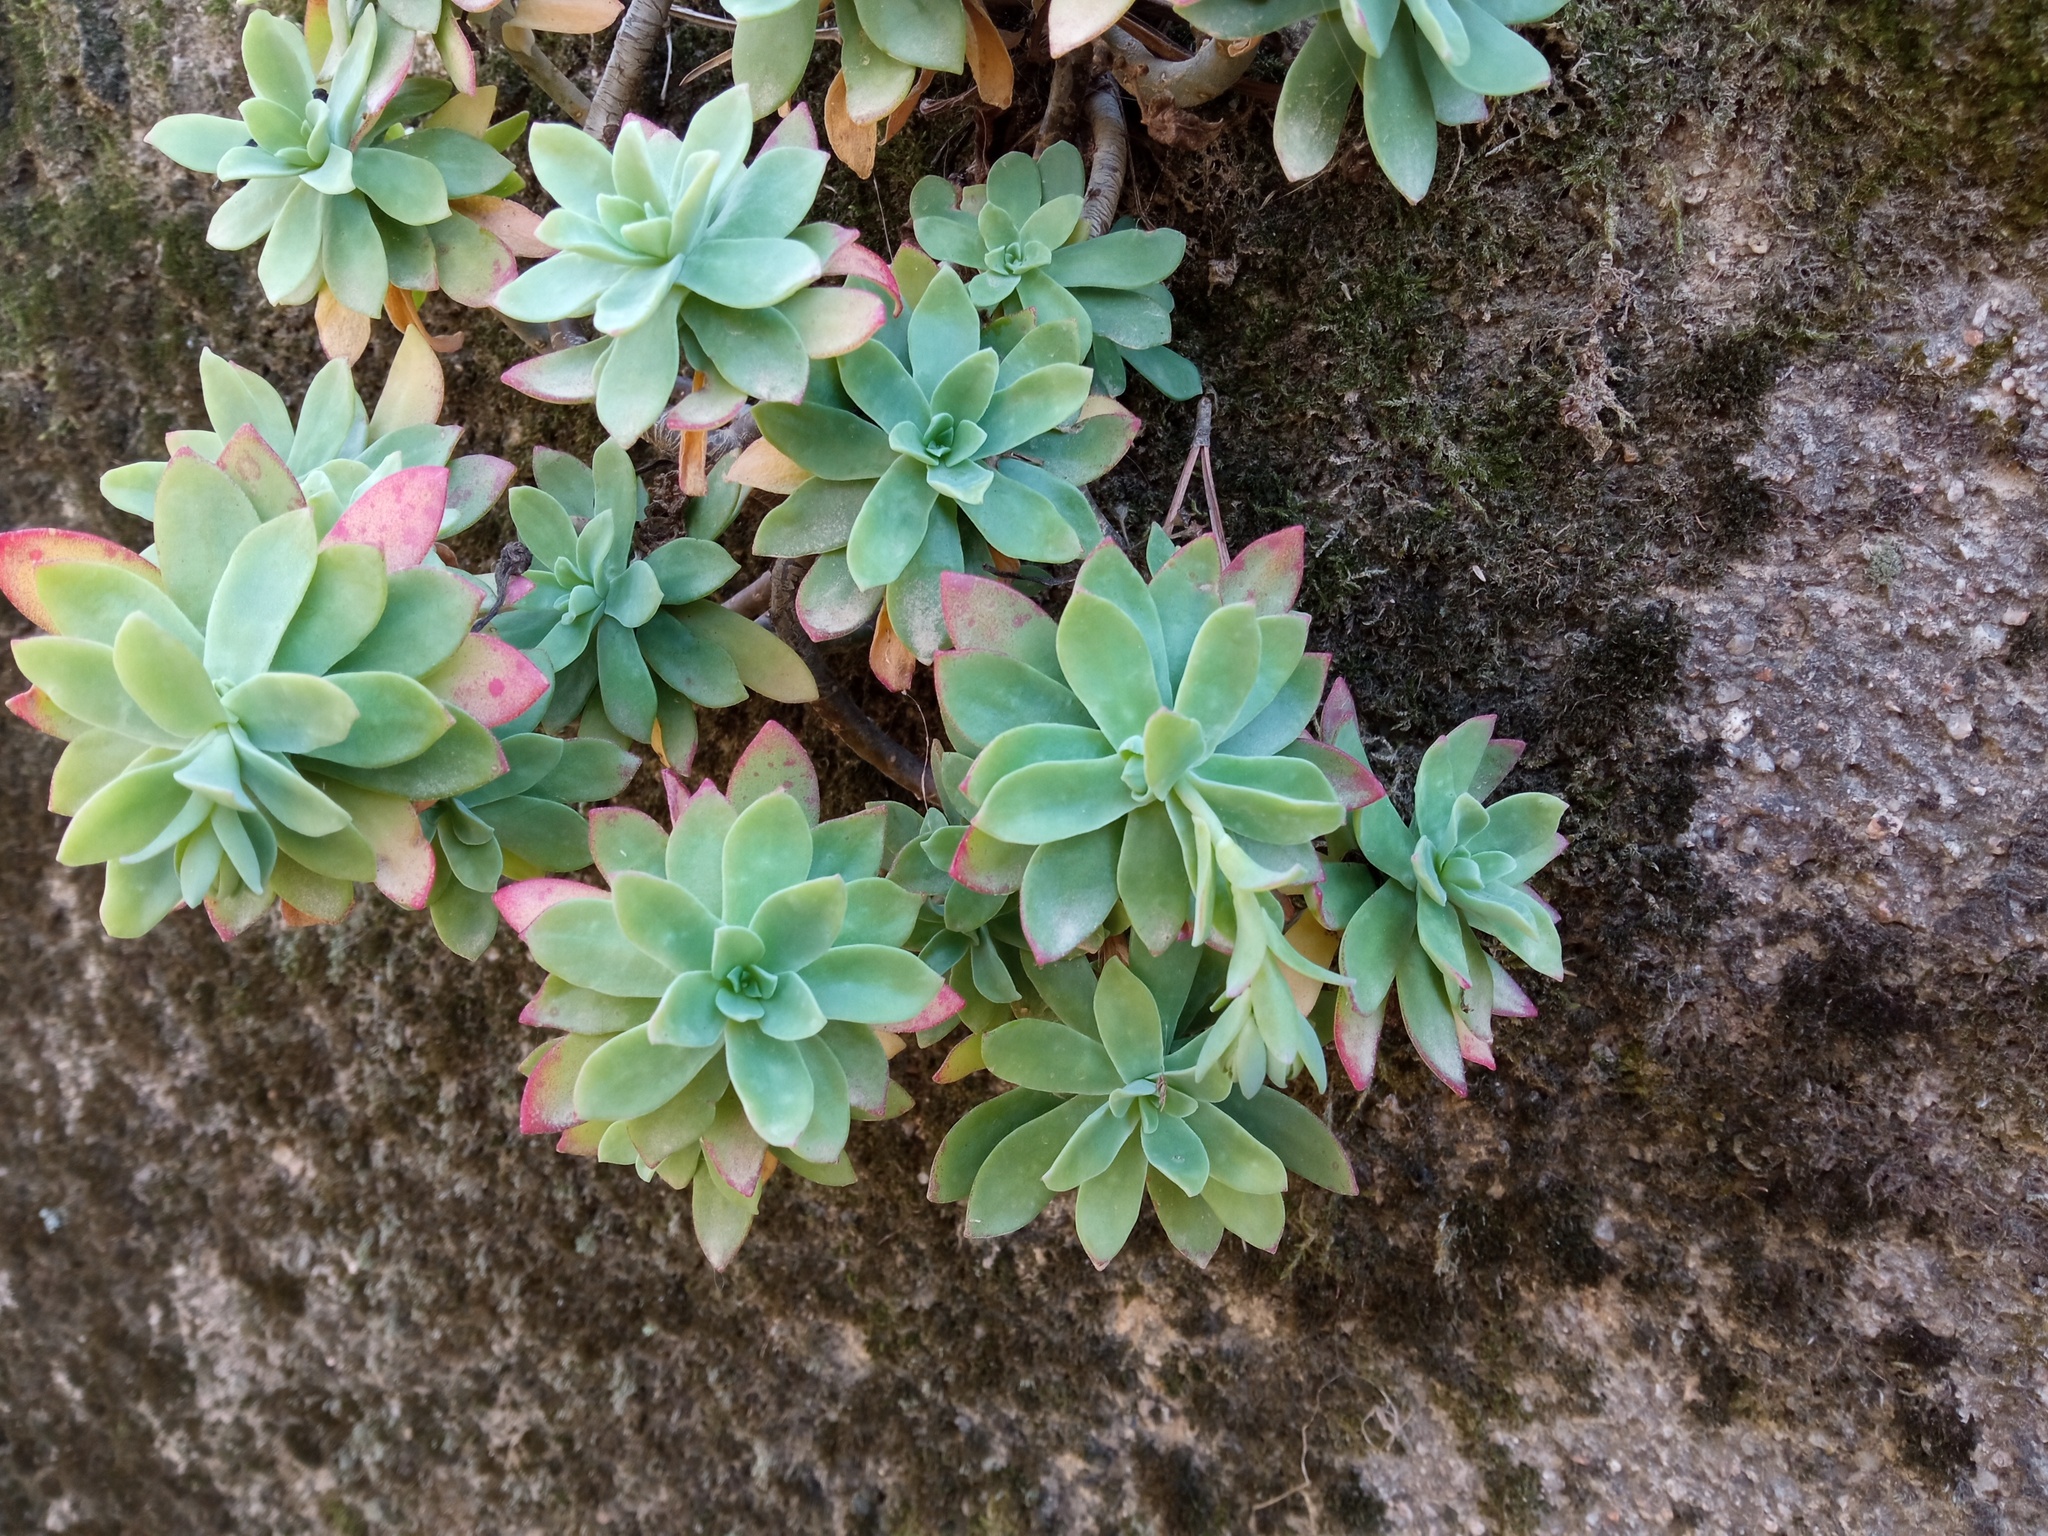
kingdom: Plantae
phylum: Tracheophyta
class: Magnoliopsida
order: Saxifragales
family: Crassulaceae
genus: Sedum
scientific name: Sedum palmeri
